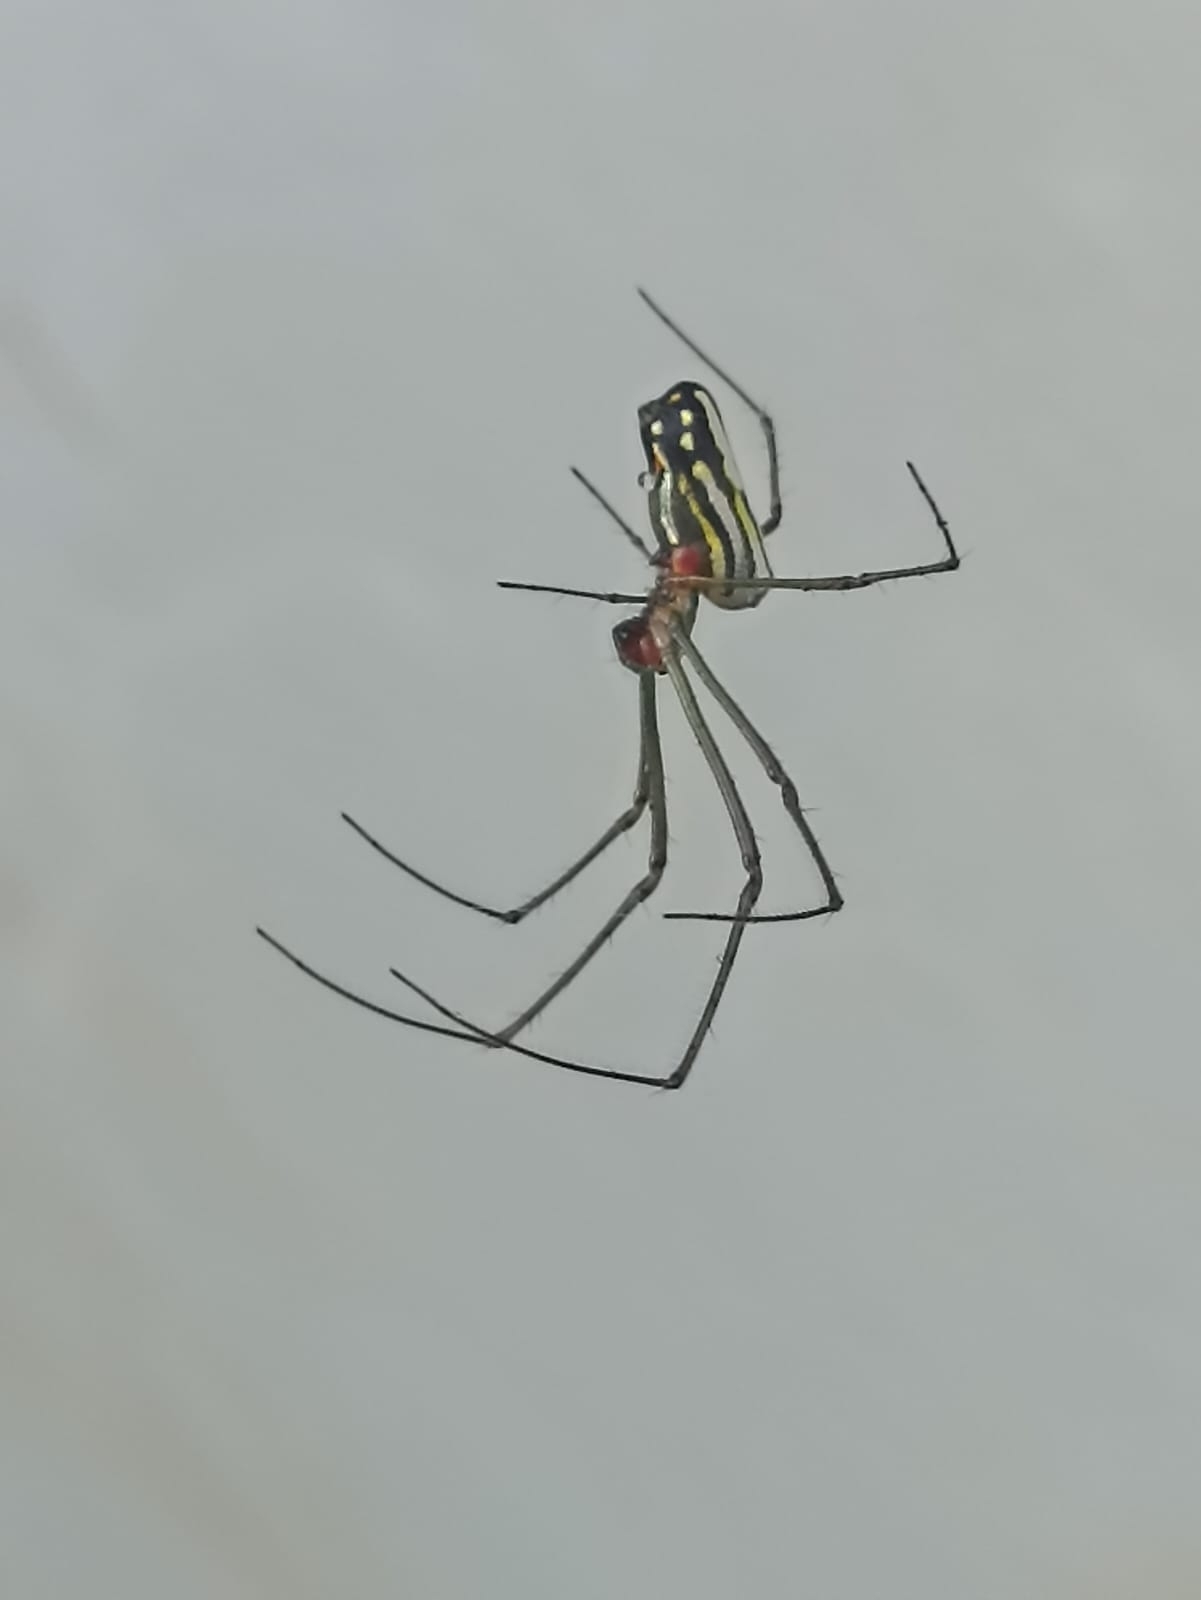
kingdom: Animalia
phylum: Arthropoda
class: Arachnida
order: Araneae
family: Tetragnathidae
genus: Leucauge
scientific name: Leucauge argyra
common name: Longjawed orb weavers
